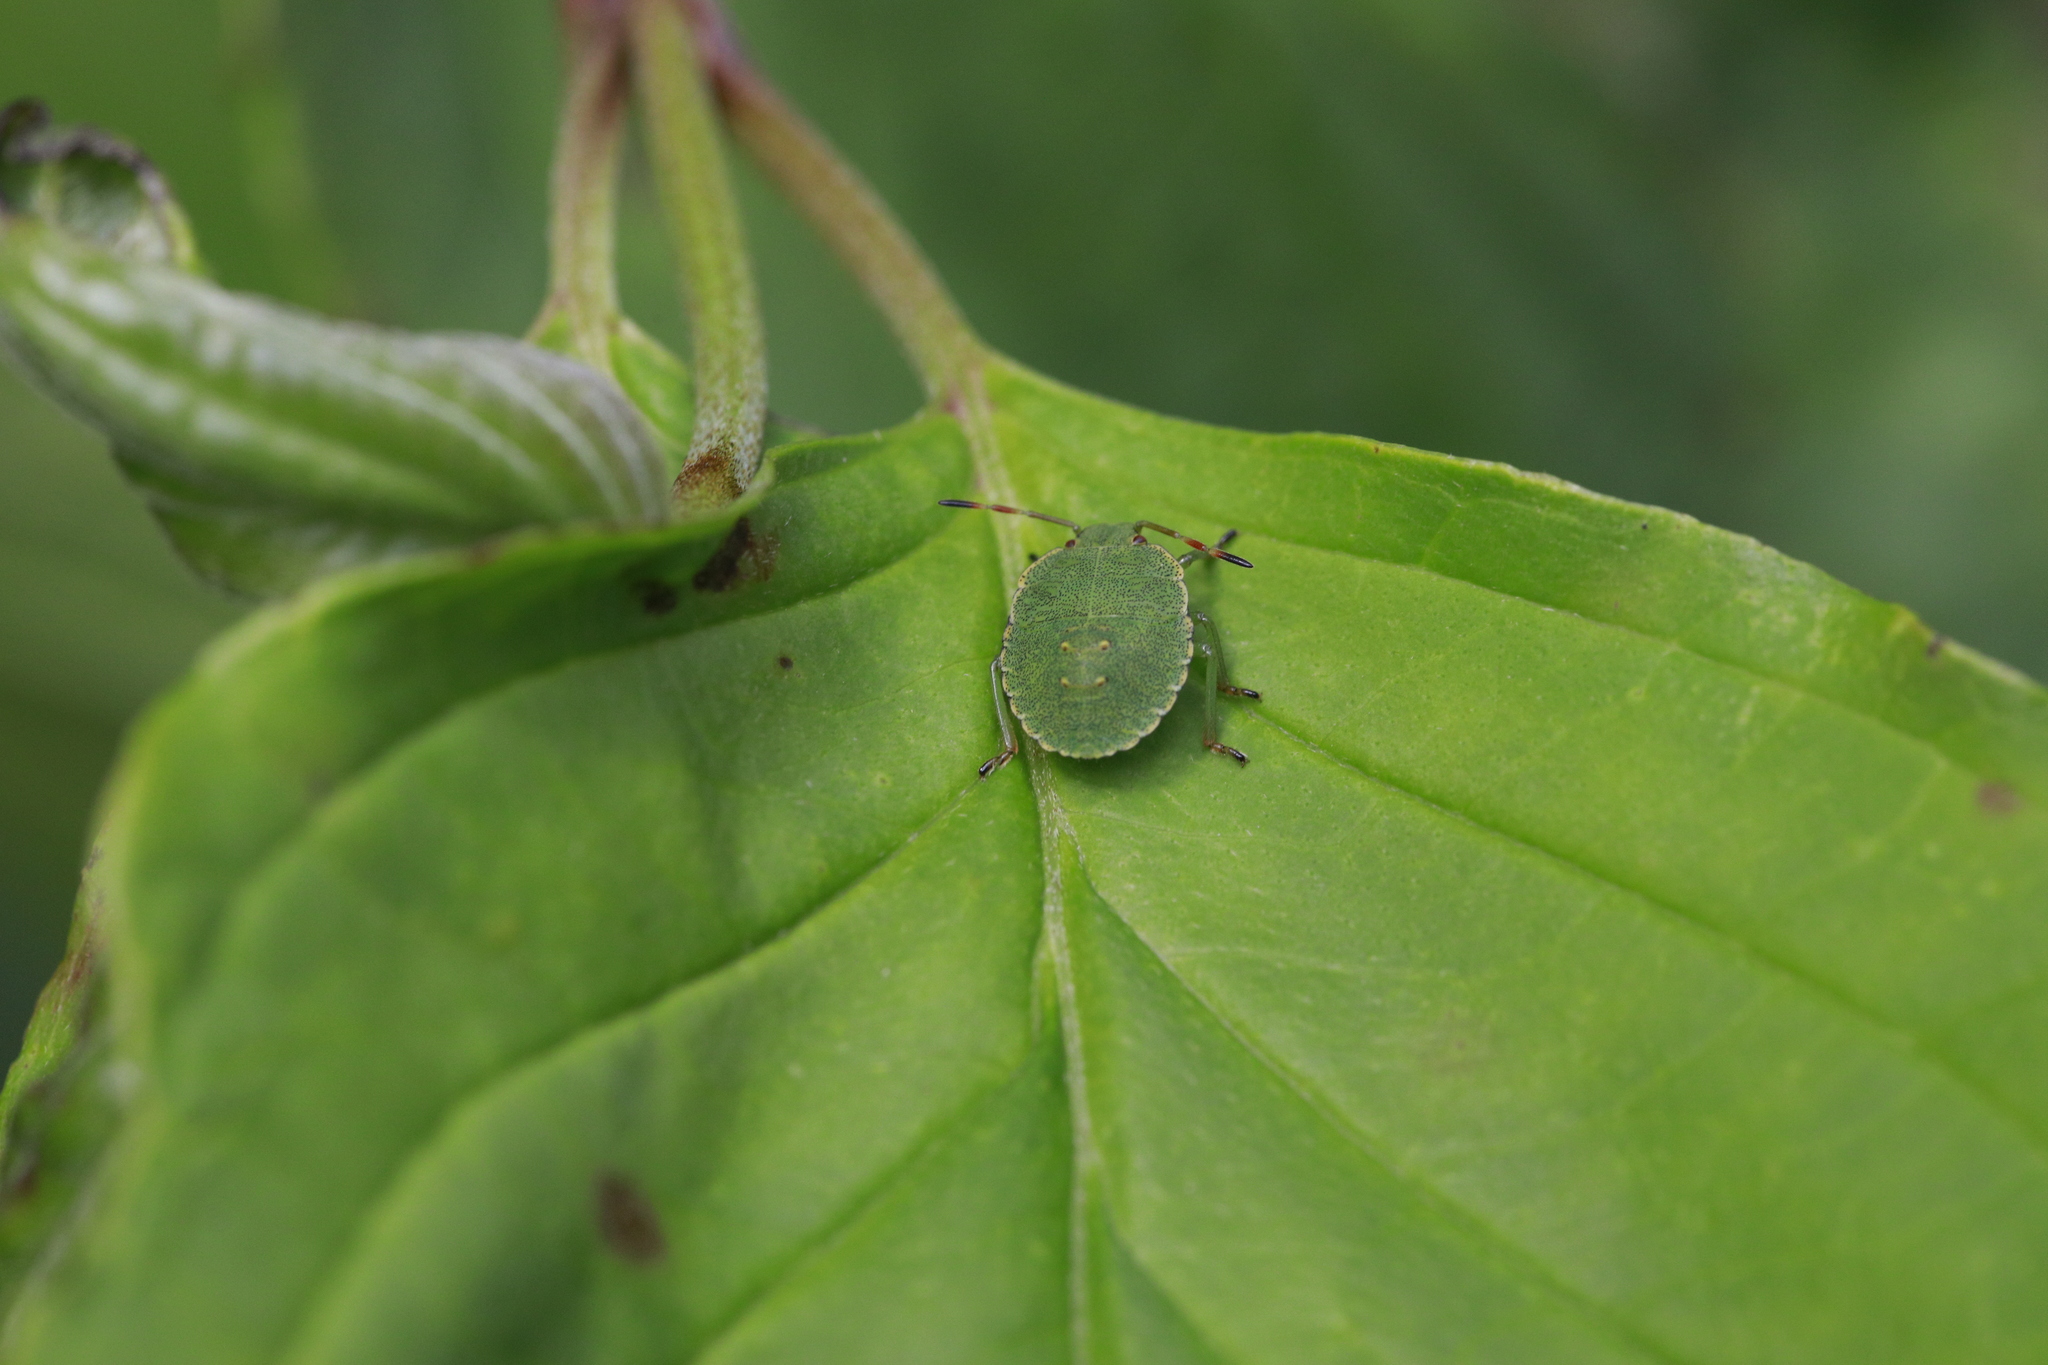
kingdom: Animalia
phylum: Arthropoda
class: Insecta
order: Hemiptera
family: Pentatomidae
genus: Palomena
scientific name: Palomena prasina
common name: Green shieldbug
